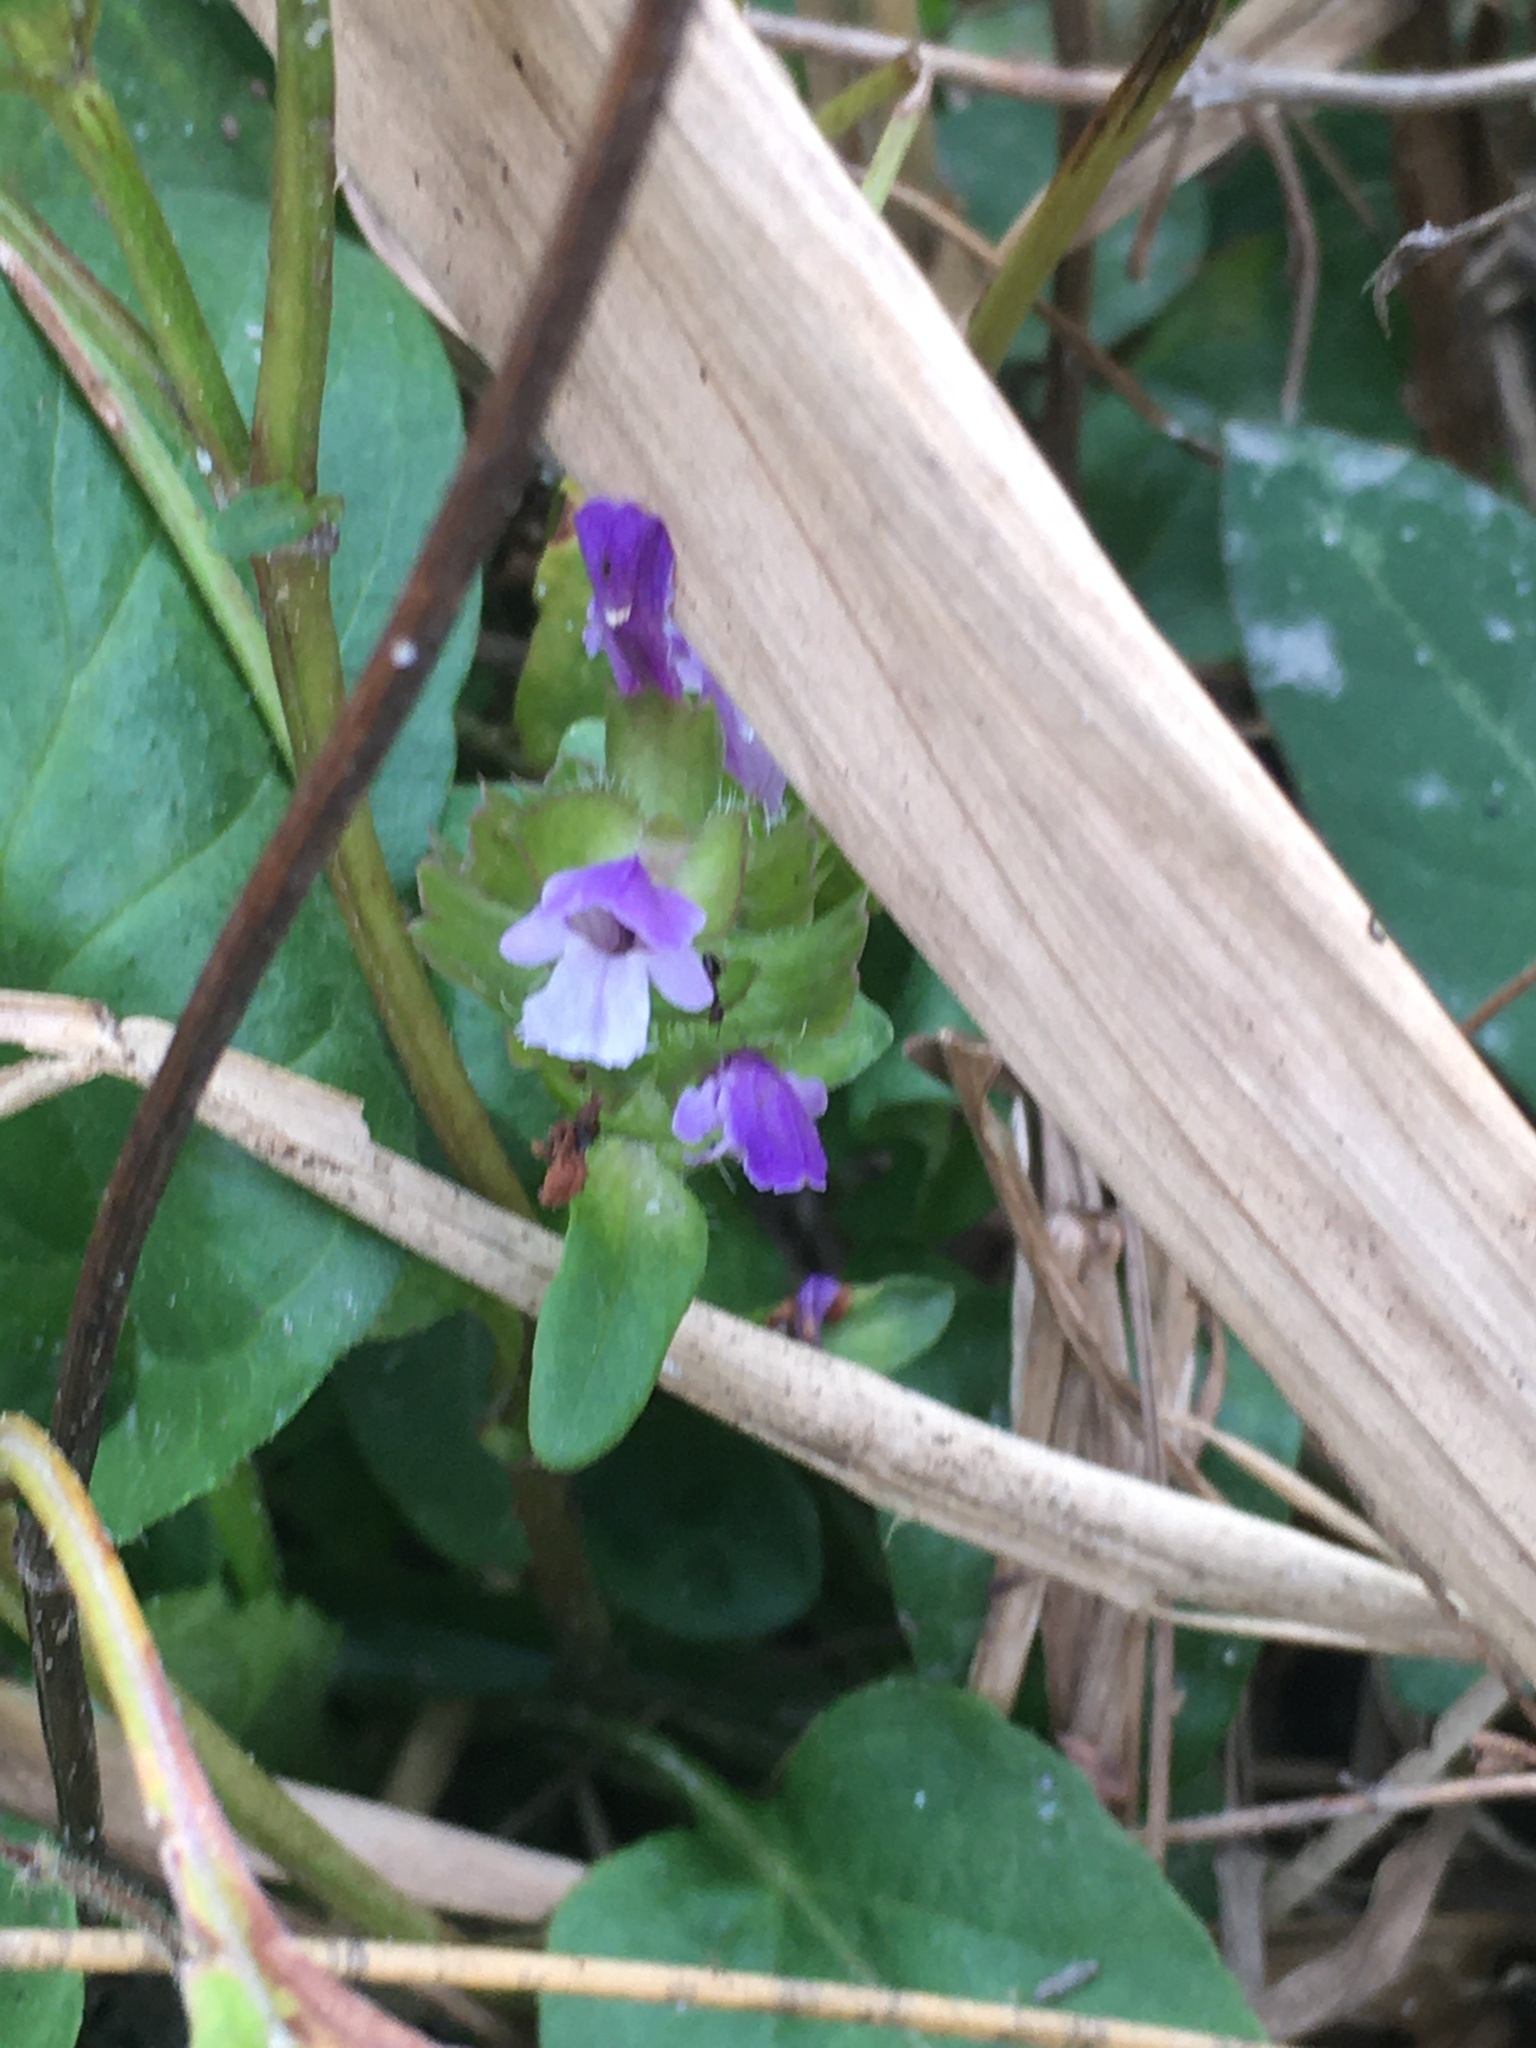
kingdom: Plantae
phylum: Tracheophyta
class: Magnoliopsida
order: Lamiales
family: Lamiaceae
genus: Prunella
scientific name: Prunella vulgaris
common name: Heal-all
